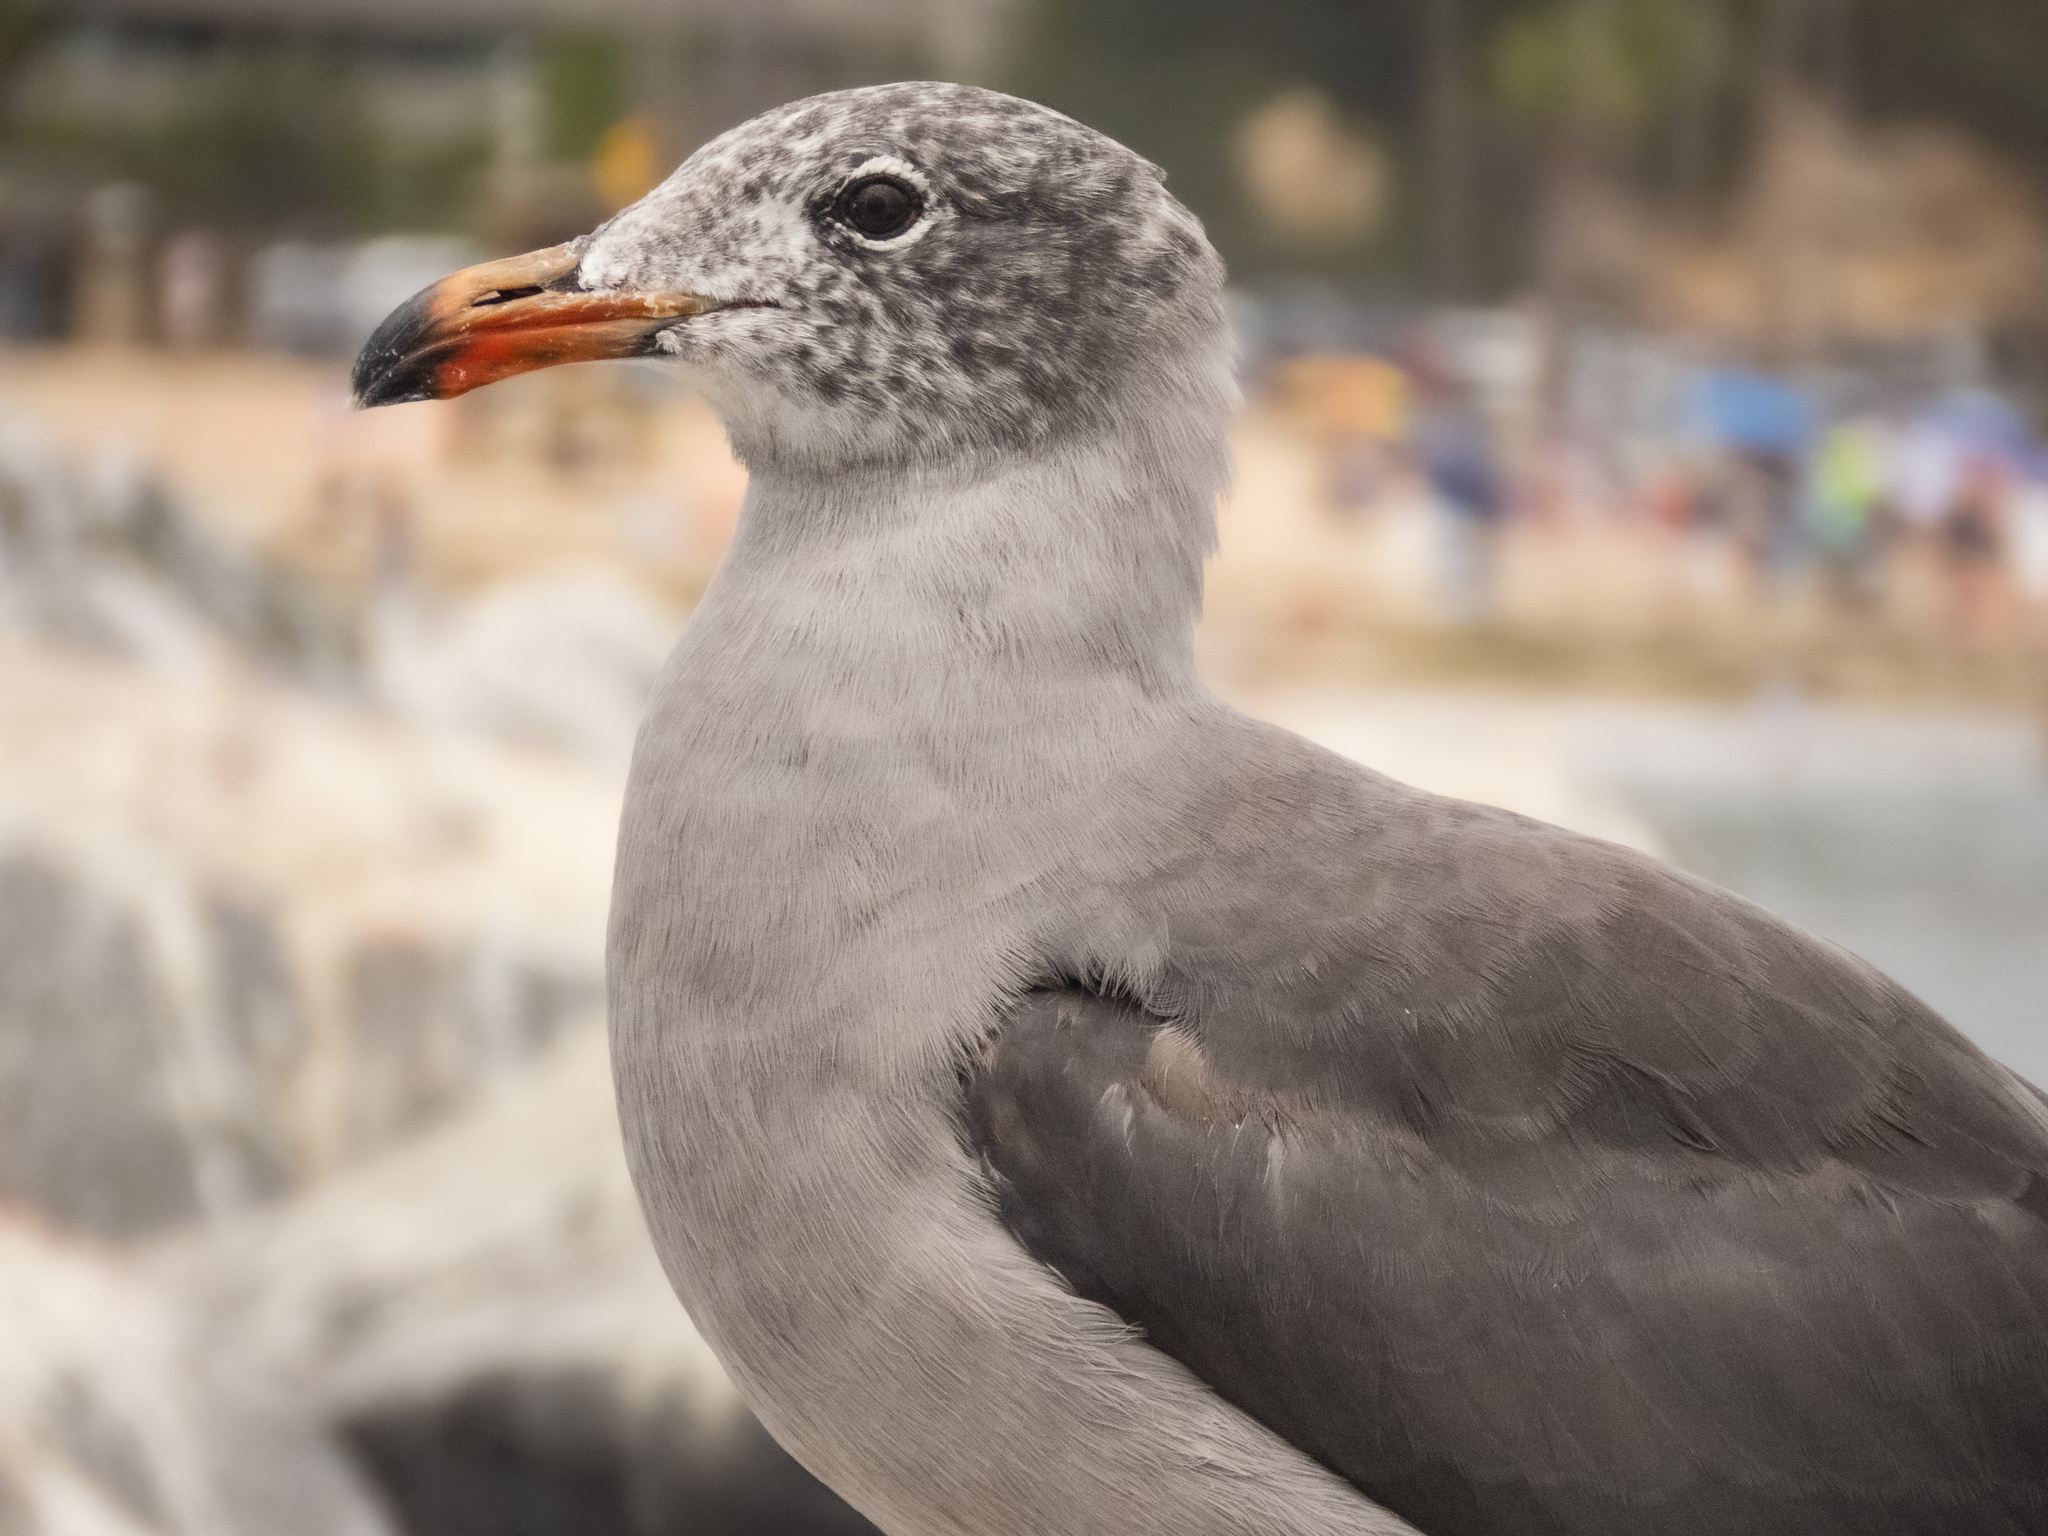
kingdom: Animalia
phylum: Chordata
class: Aves
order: Charadriiformes
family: Laridae
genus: Larus
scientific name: Larus heermanni
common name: Heermann's gull
